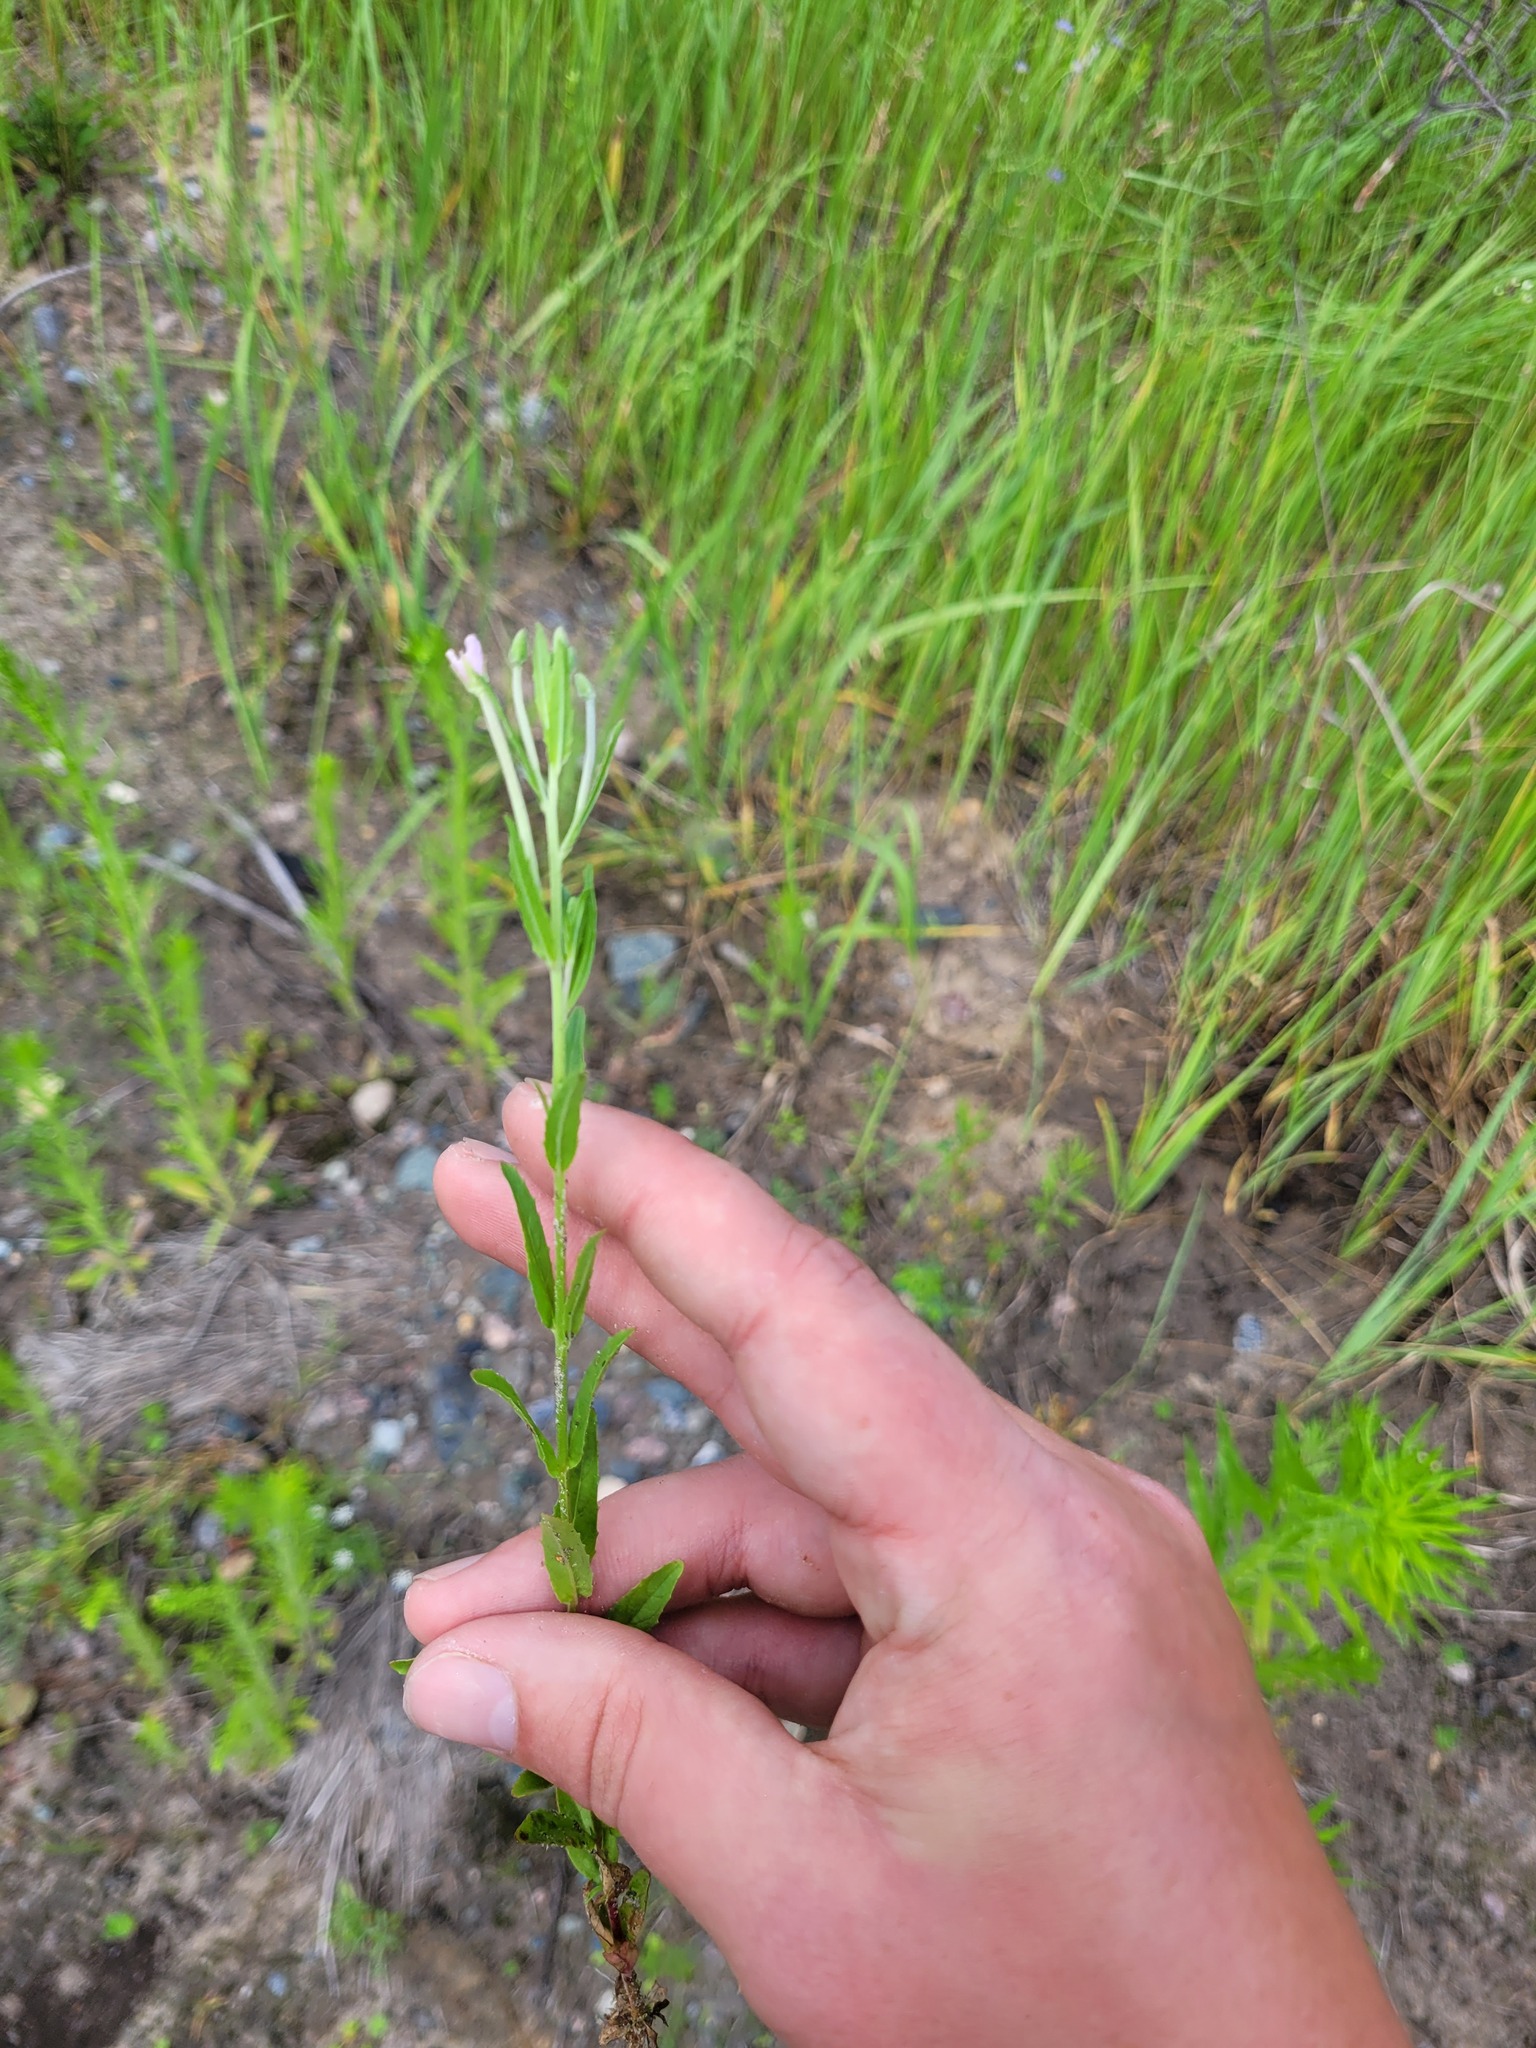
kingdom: Plantae
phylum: Tracheophyta
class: Magnoliopsida
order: Myrtales
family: Onagraceae
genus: Epilobium
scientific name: Epilobium lamyi
